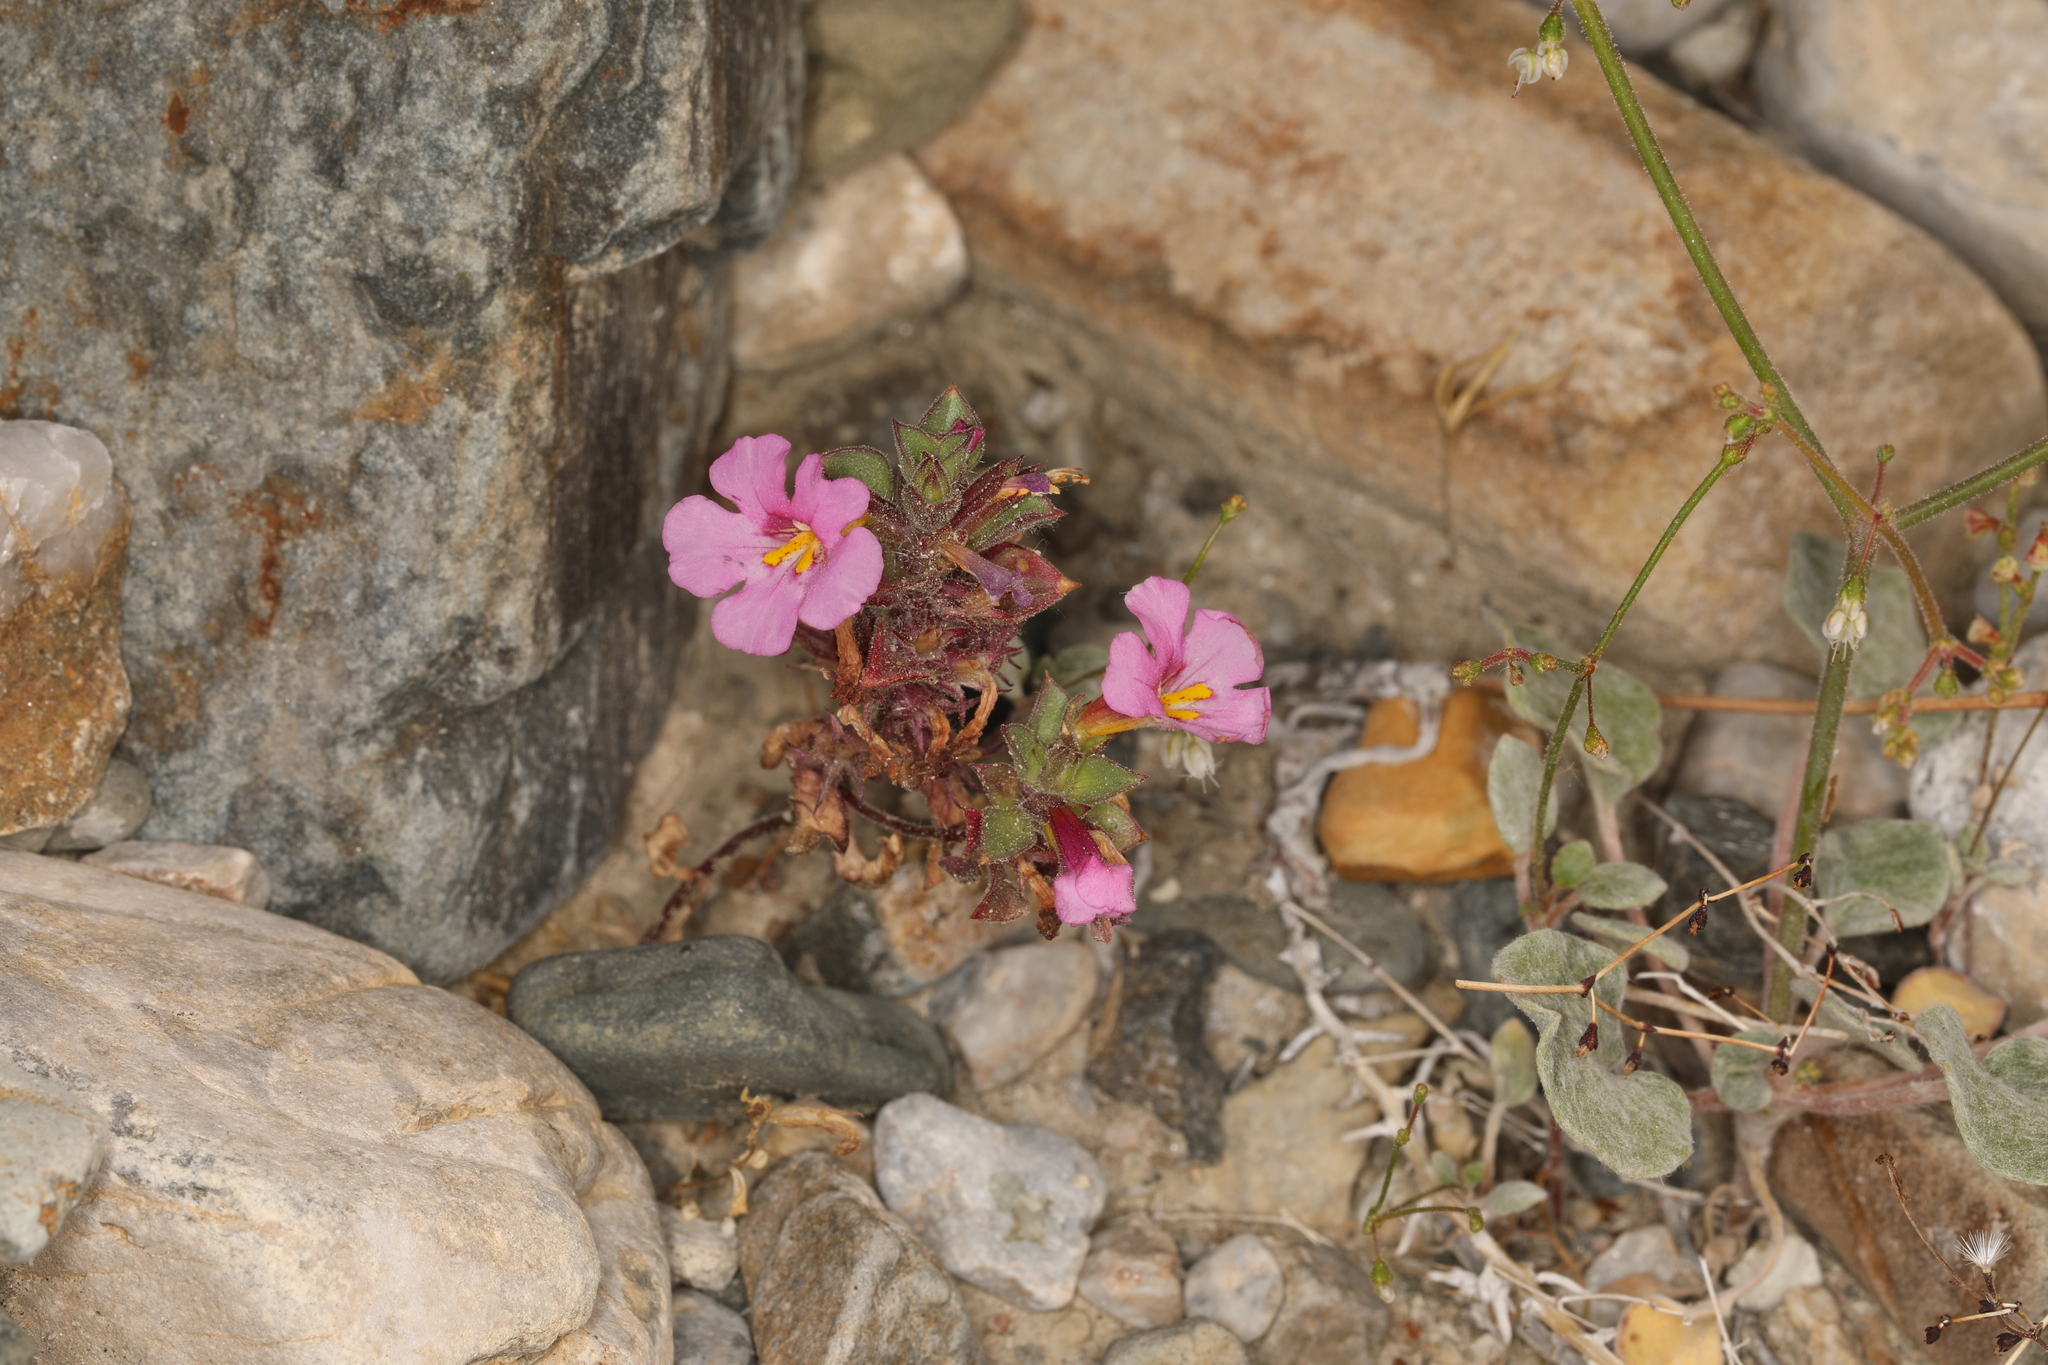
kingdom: Plantae
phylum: Tracheophyta
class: Magnoliopsida
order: Lamiales
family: Phrymaceae
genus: Diplacus
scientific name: Diplacus bigelovii
